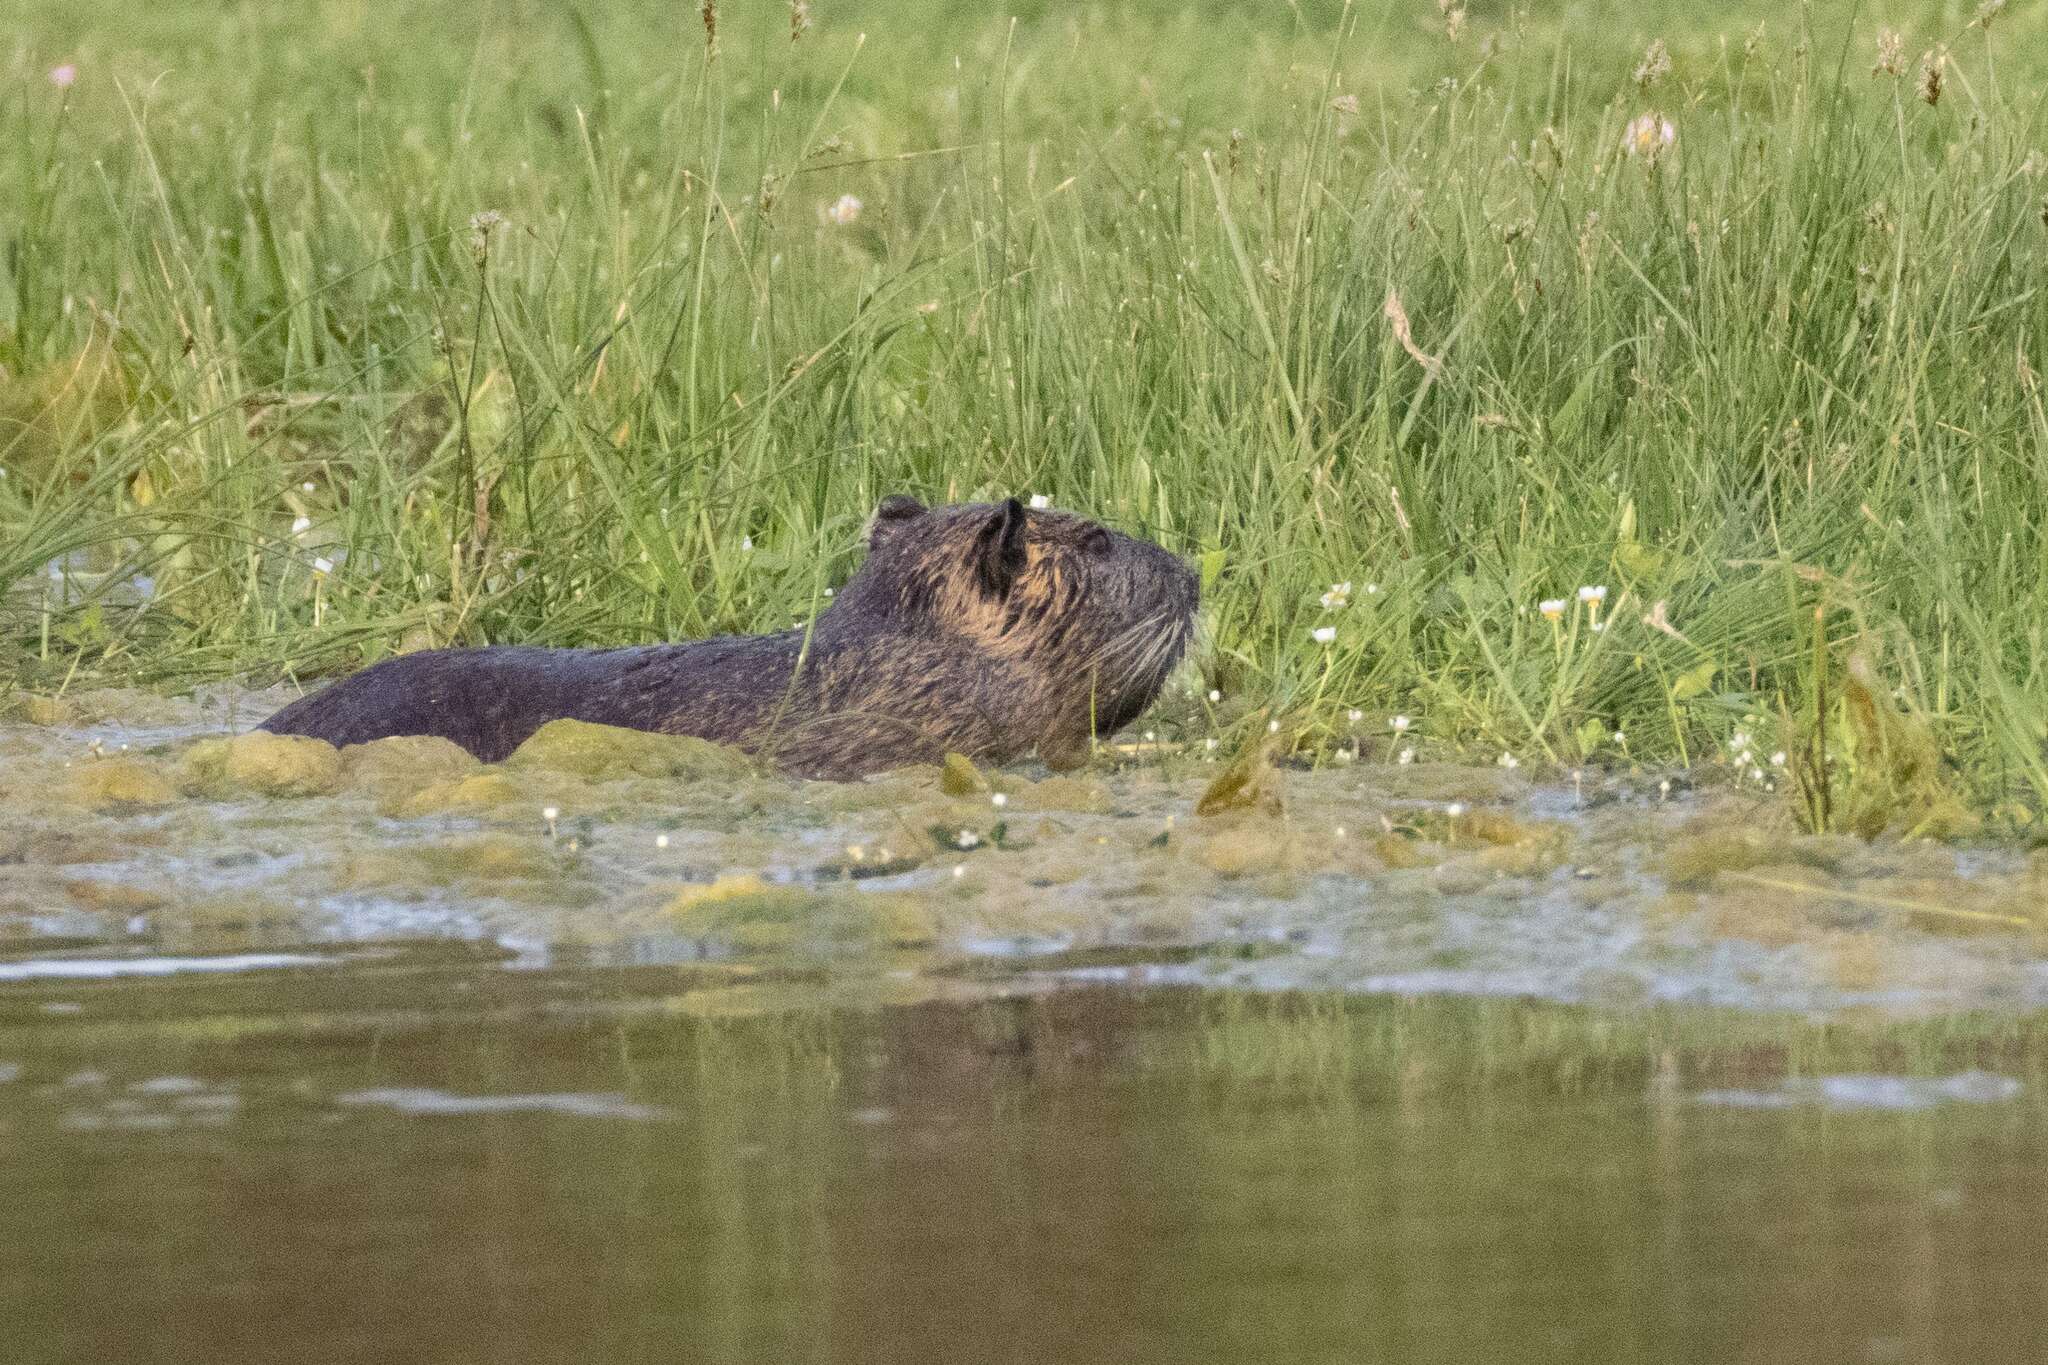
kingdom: Animalia
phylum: Chordata
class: Mammalia
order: Rodentia
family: Myocastoridae
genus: Myocastor
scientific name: Myocastor coypus
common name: Coypu
